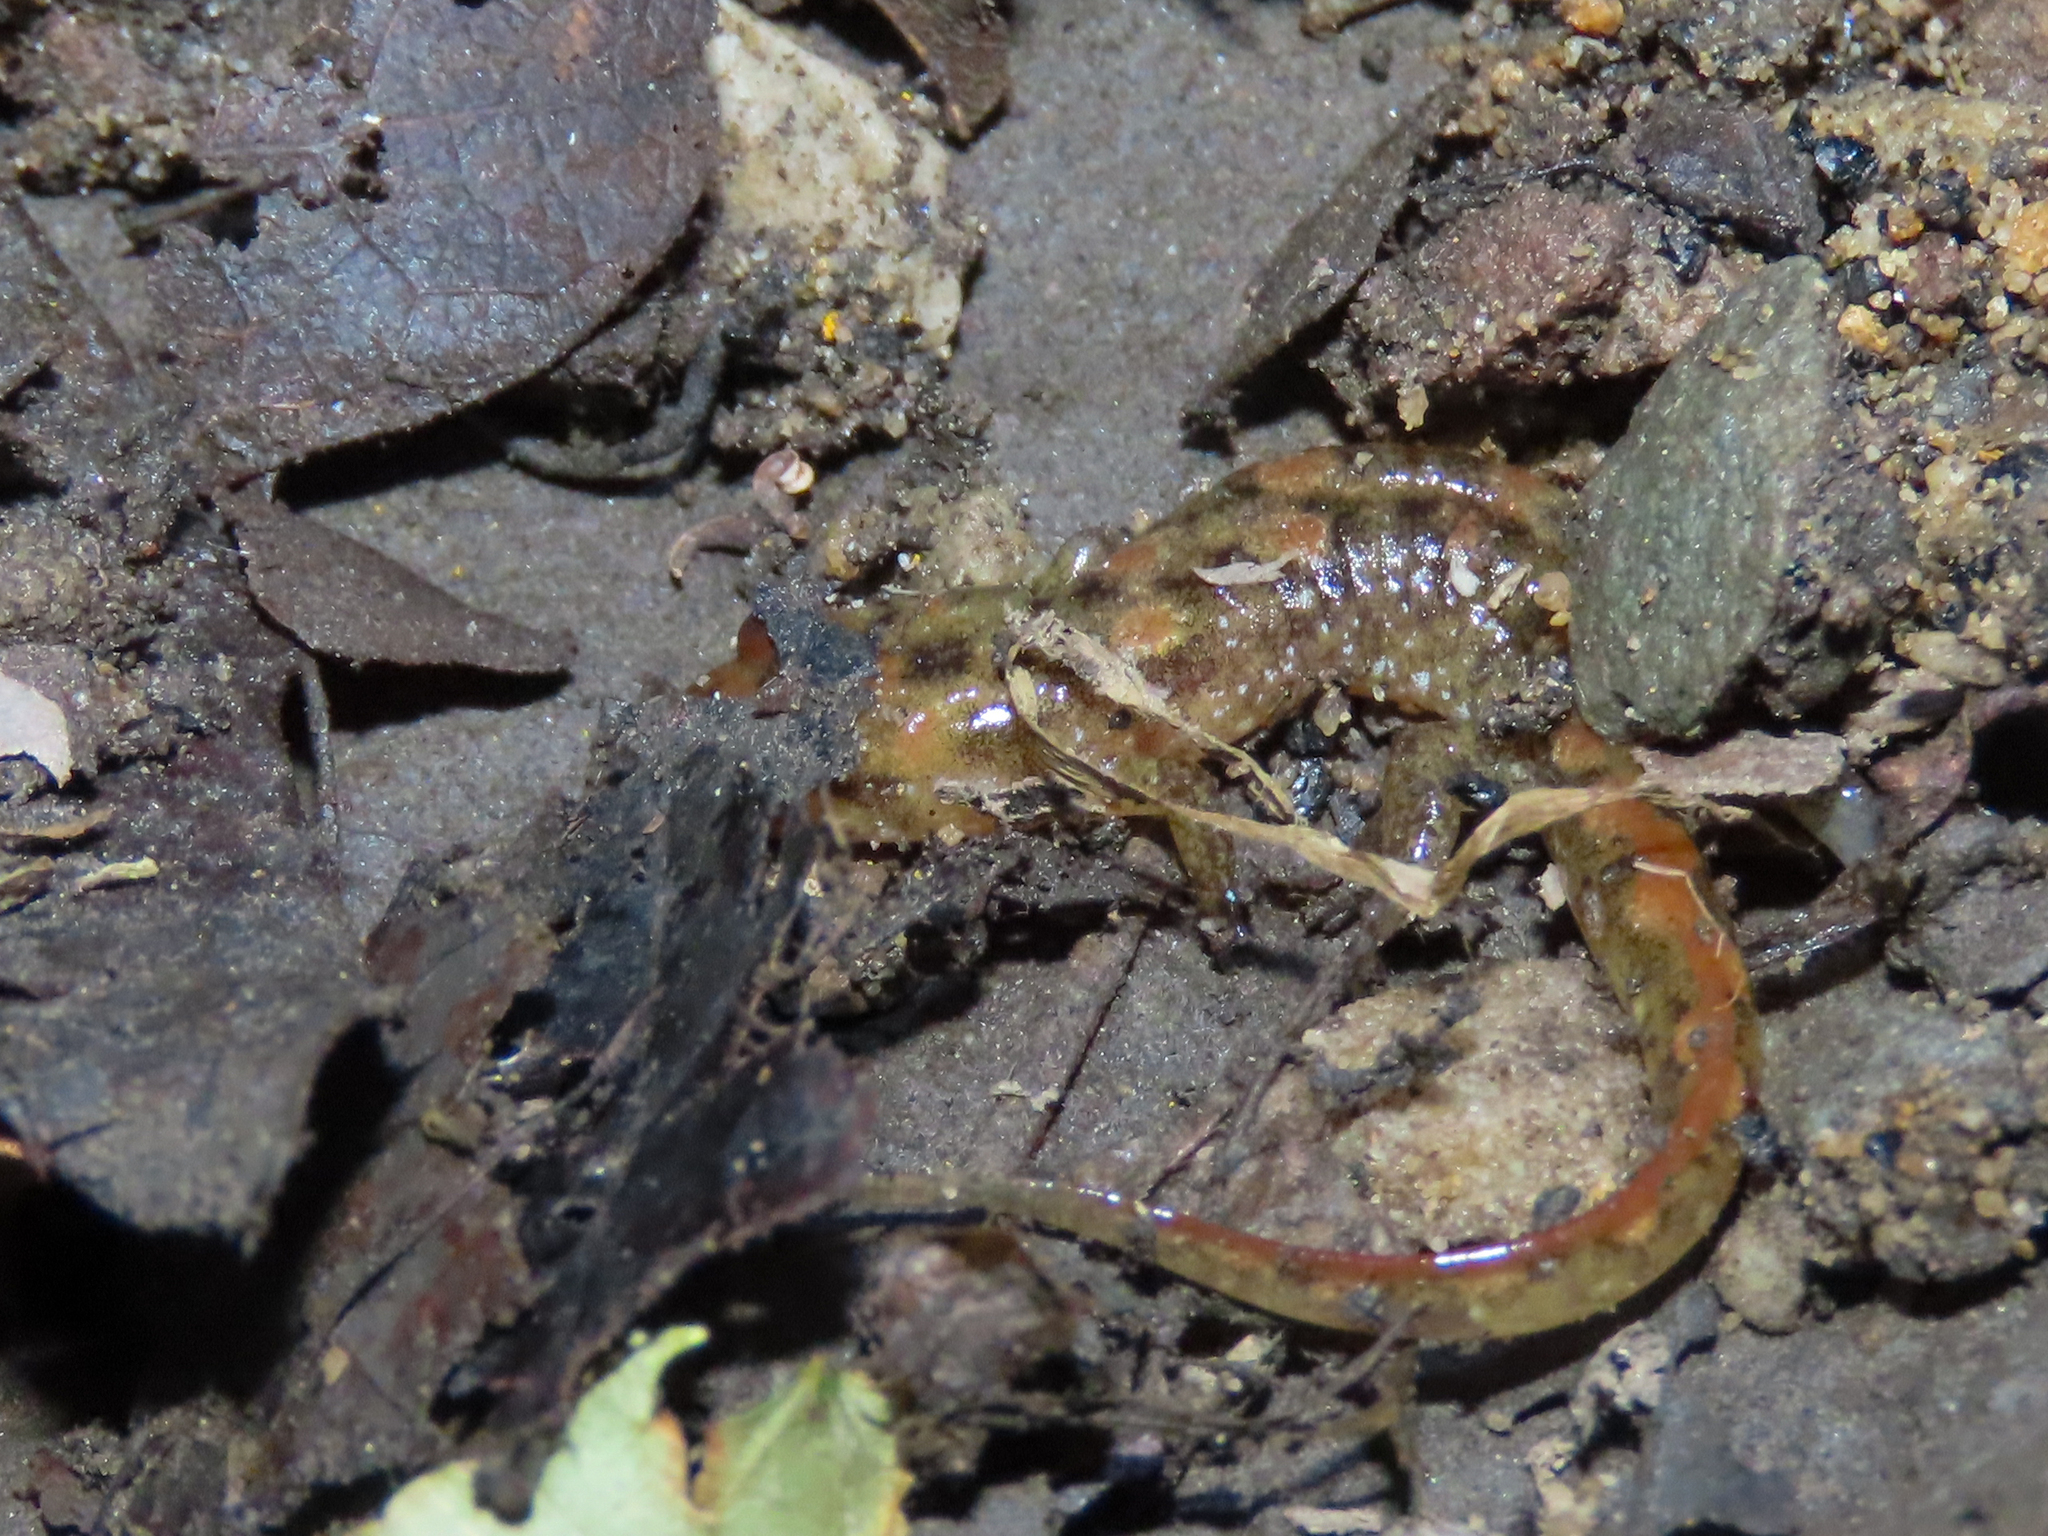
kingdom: Animalia
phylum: Chordata
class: Amphibia
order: Caudata
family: Plethodontidae
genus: Desmognathus
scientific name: Desmognathus monticola
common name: Seal salamander
